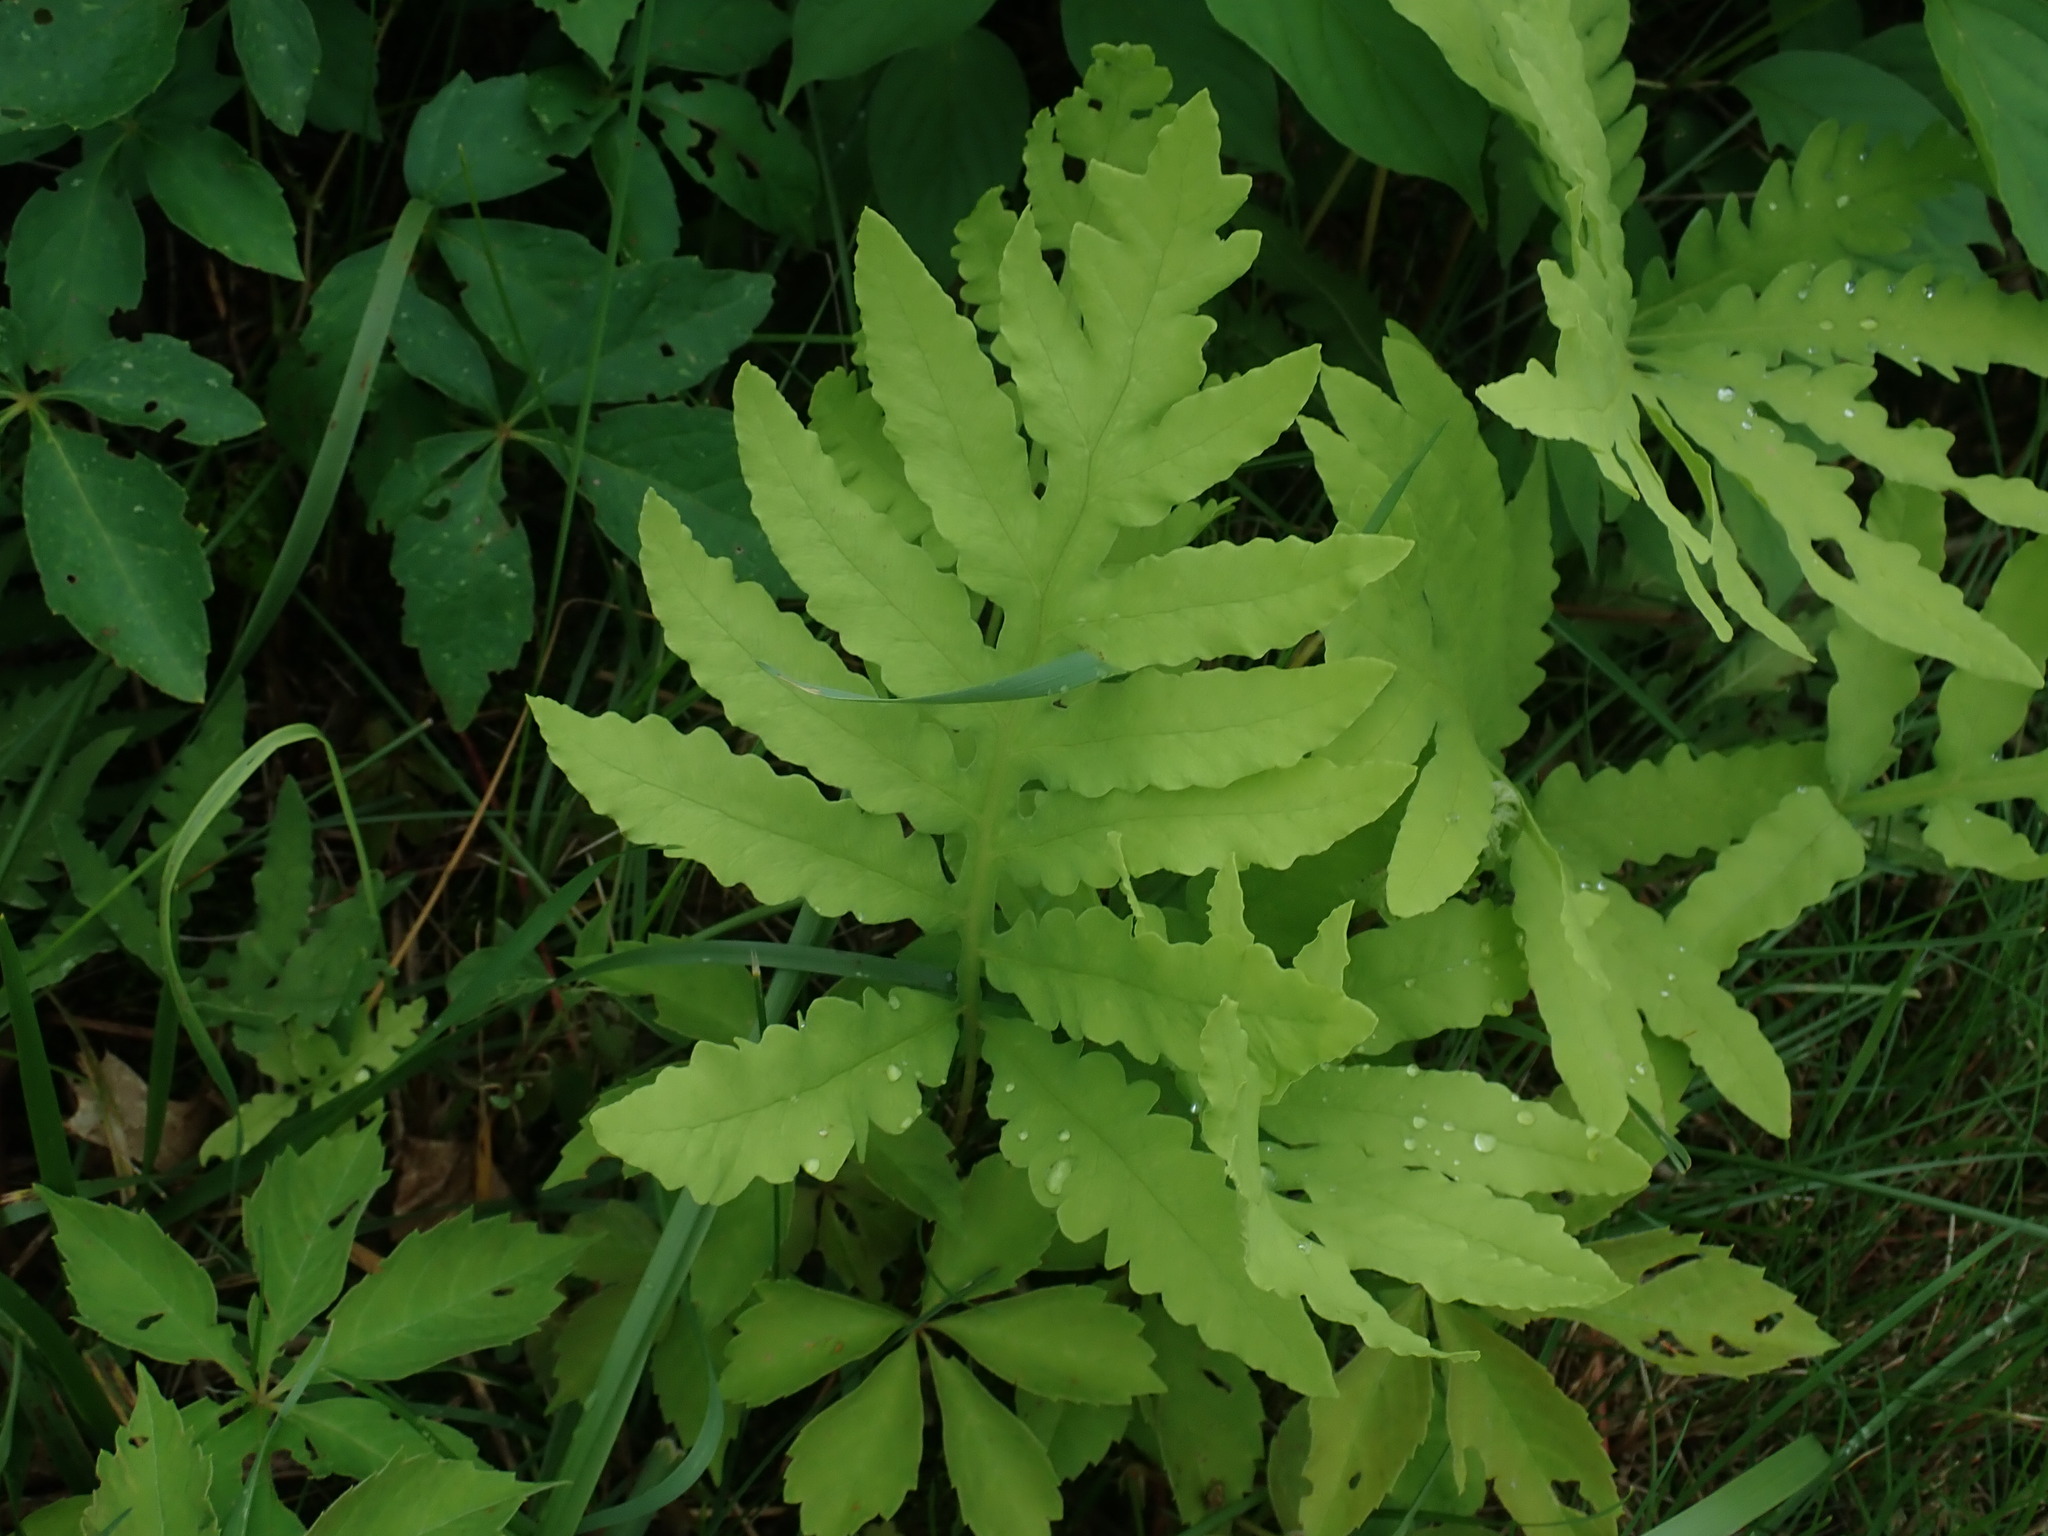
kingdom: Plantae
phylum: Tracheophyta
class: Polypodiopsida
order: Polypodiales
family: Onocleaceae
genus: Onoclea
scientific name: Onoclea sensibilis
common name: Sensitive fern
